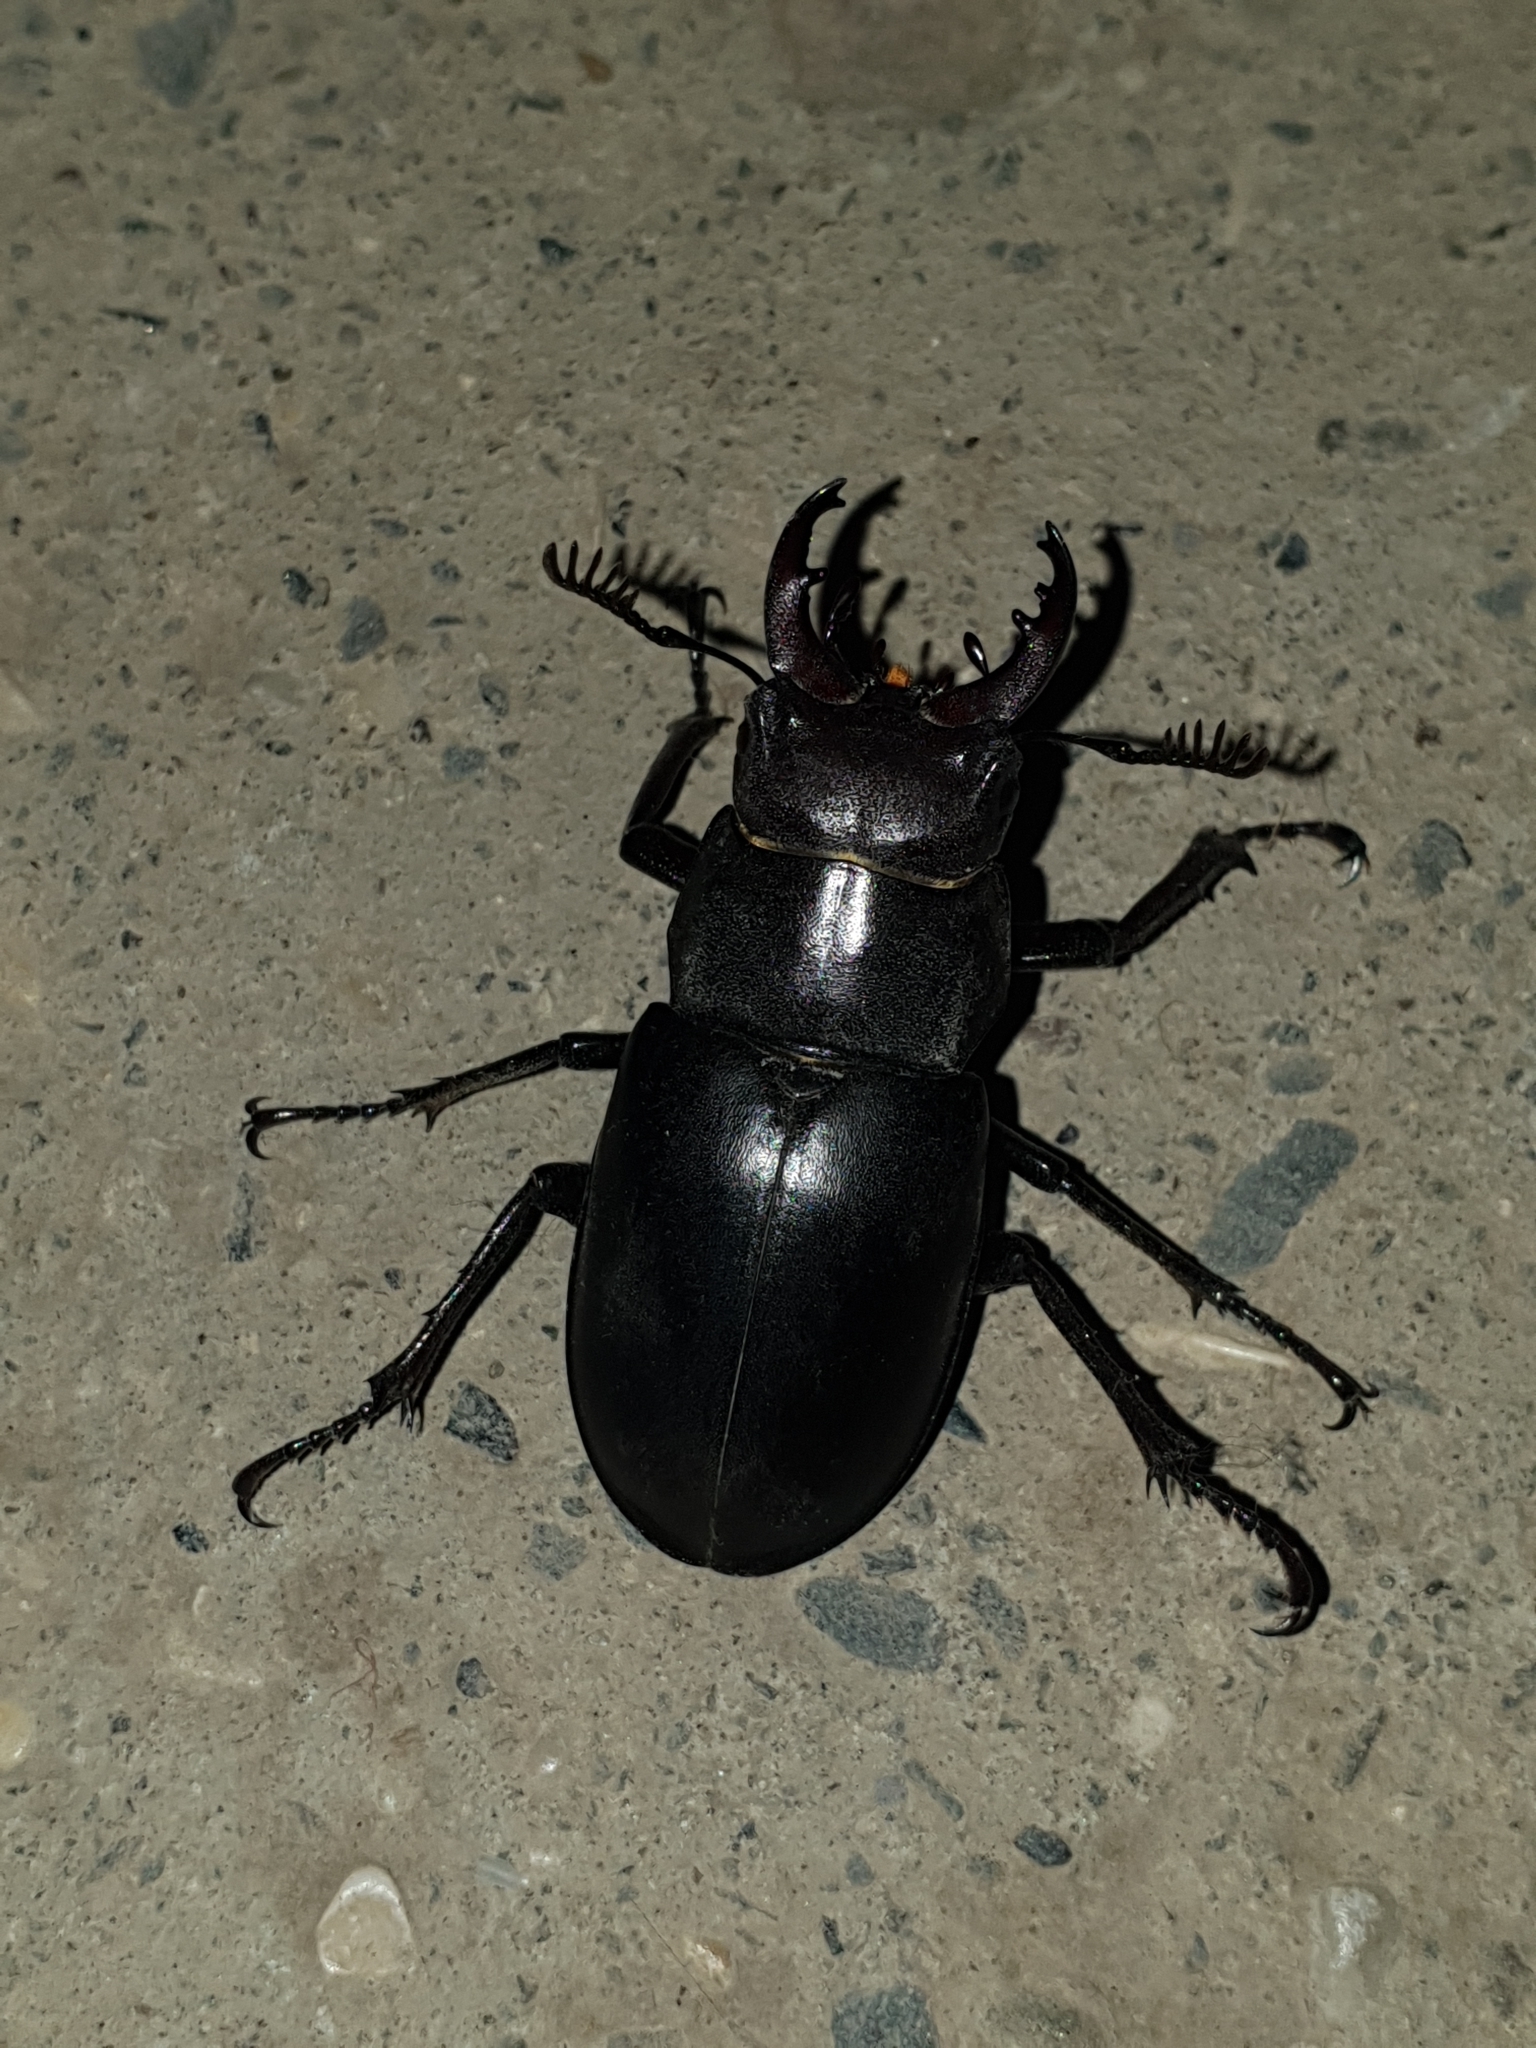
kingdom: Animalia
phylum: Arthropoda
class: Insecta
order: Coleoptera
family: Lucanidae
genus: Lucanus
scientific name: Lucanus ibericus
